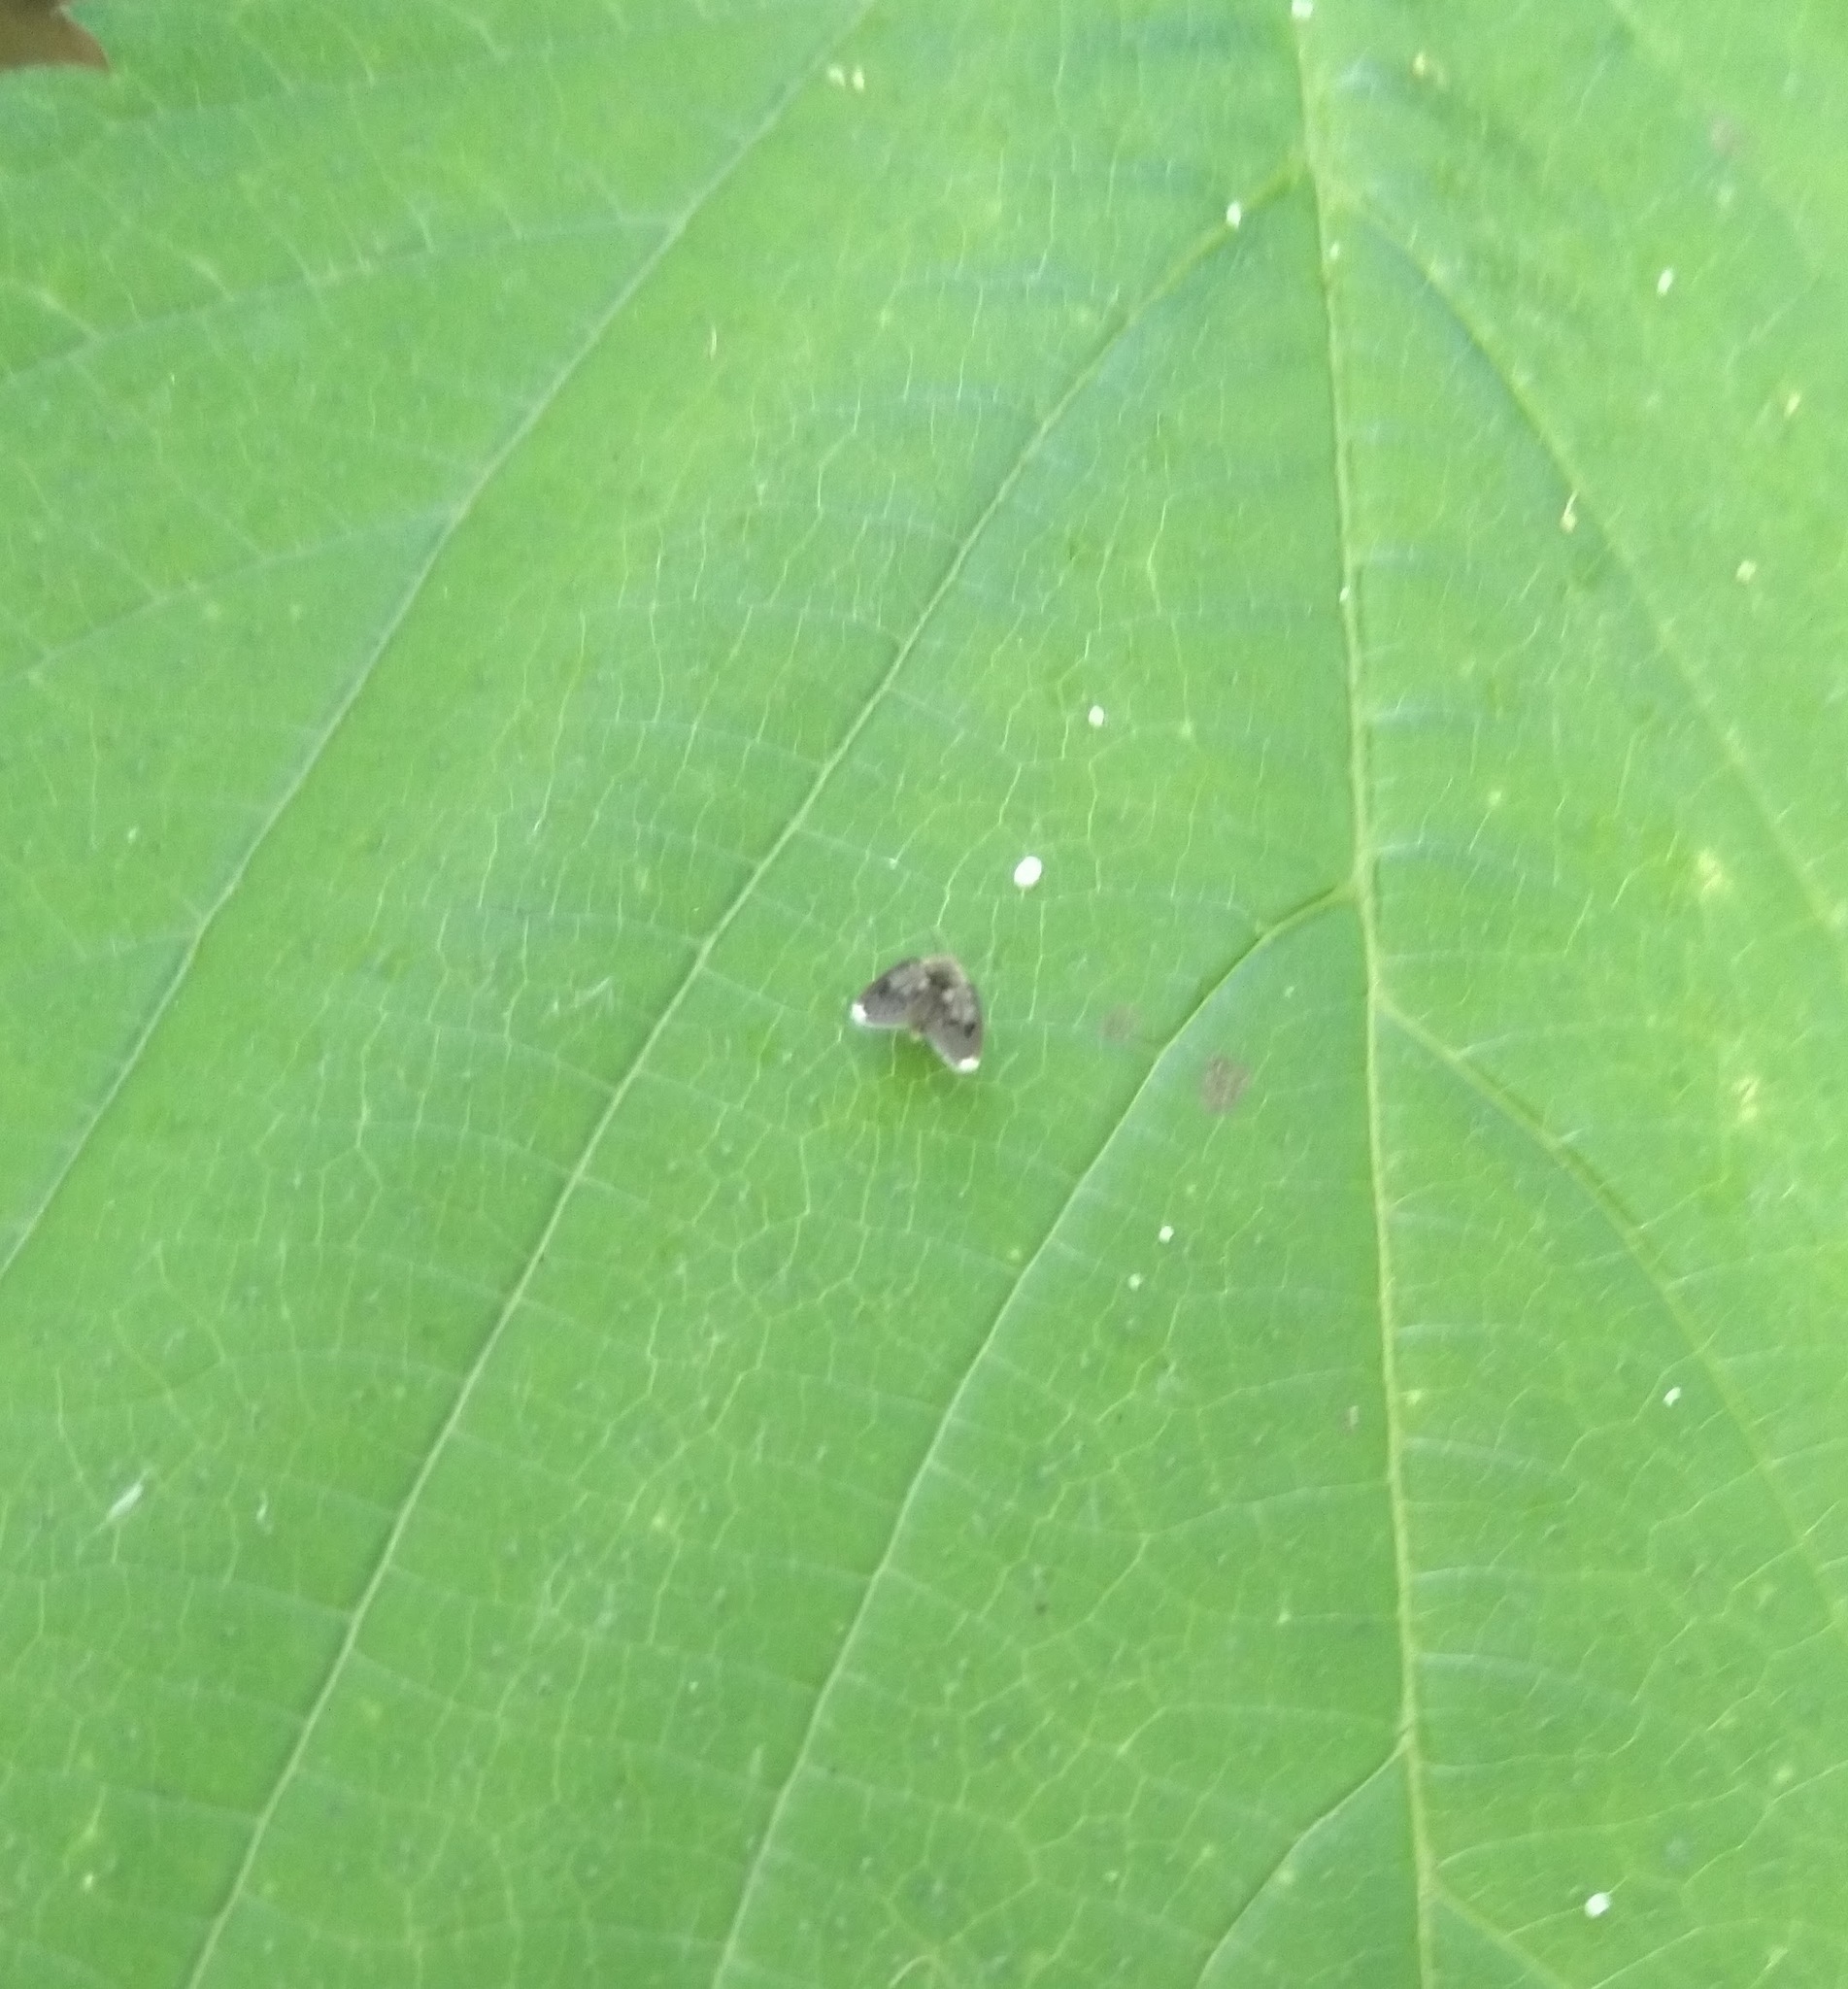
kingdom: Animalia
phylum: Arthropoda
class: Insecta
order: Diptera
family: Psychodidae
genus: Lepiseodina
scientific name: Lepiseodina
